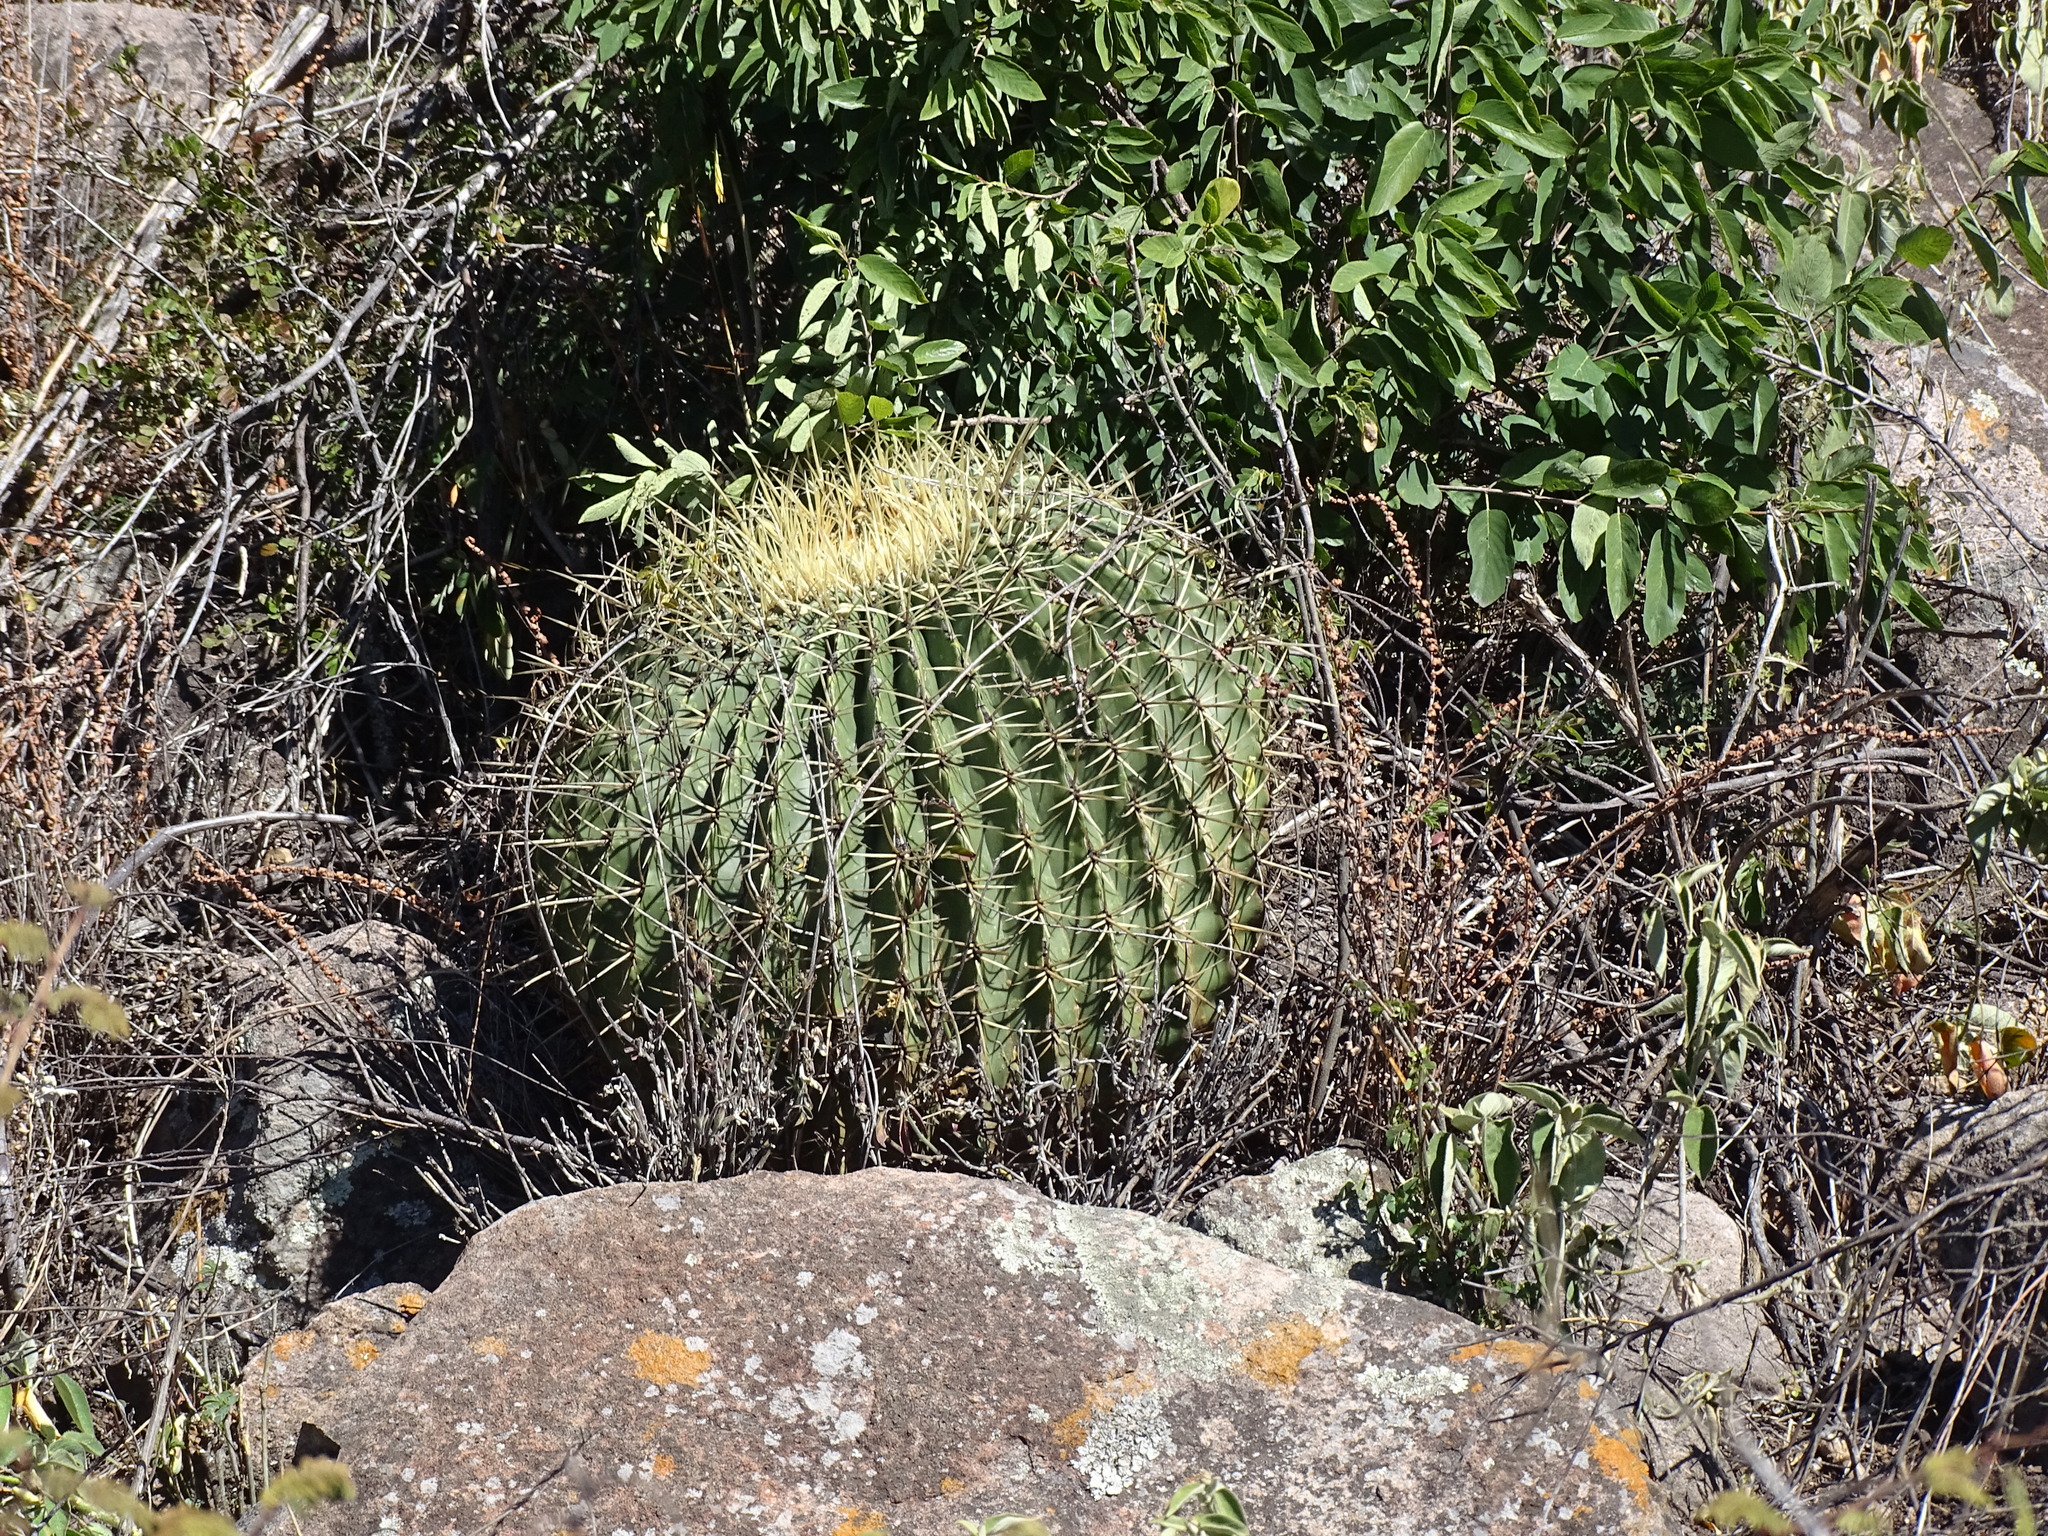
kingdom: Plantae
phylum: Tracheophyta
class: Magnoliopsida
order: Caryophyllales
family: Cactaceae
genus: Bisnaga
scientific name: Bisnaga histrix
